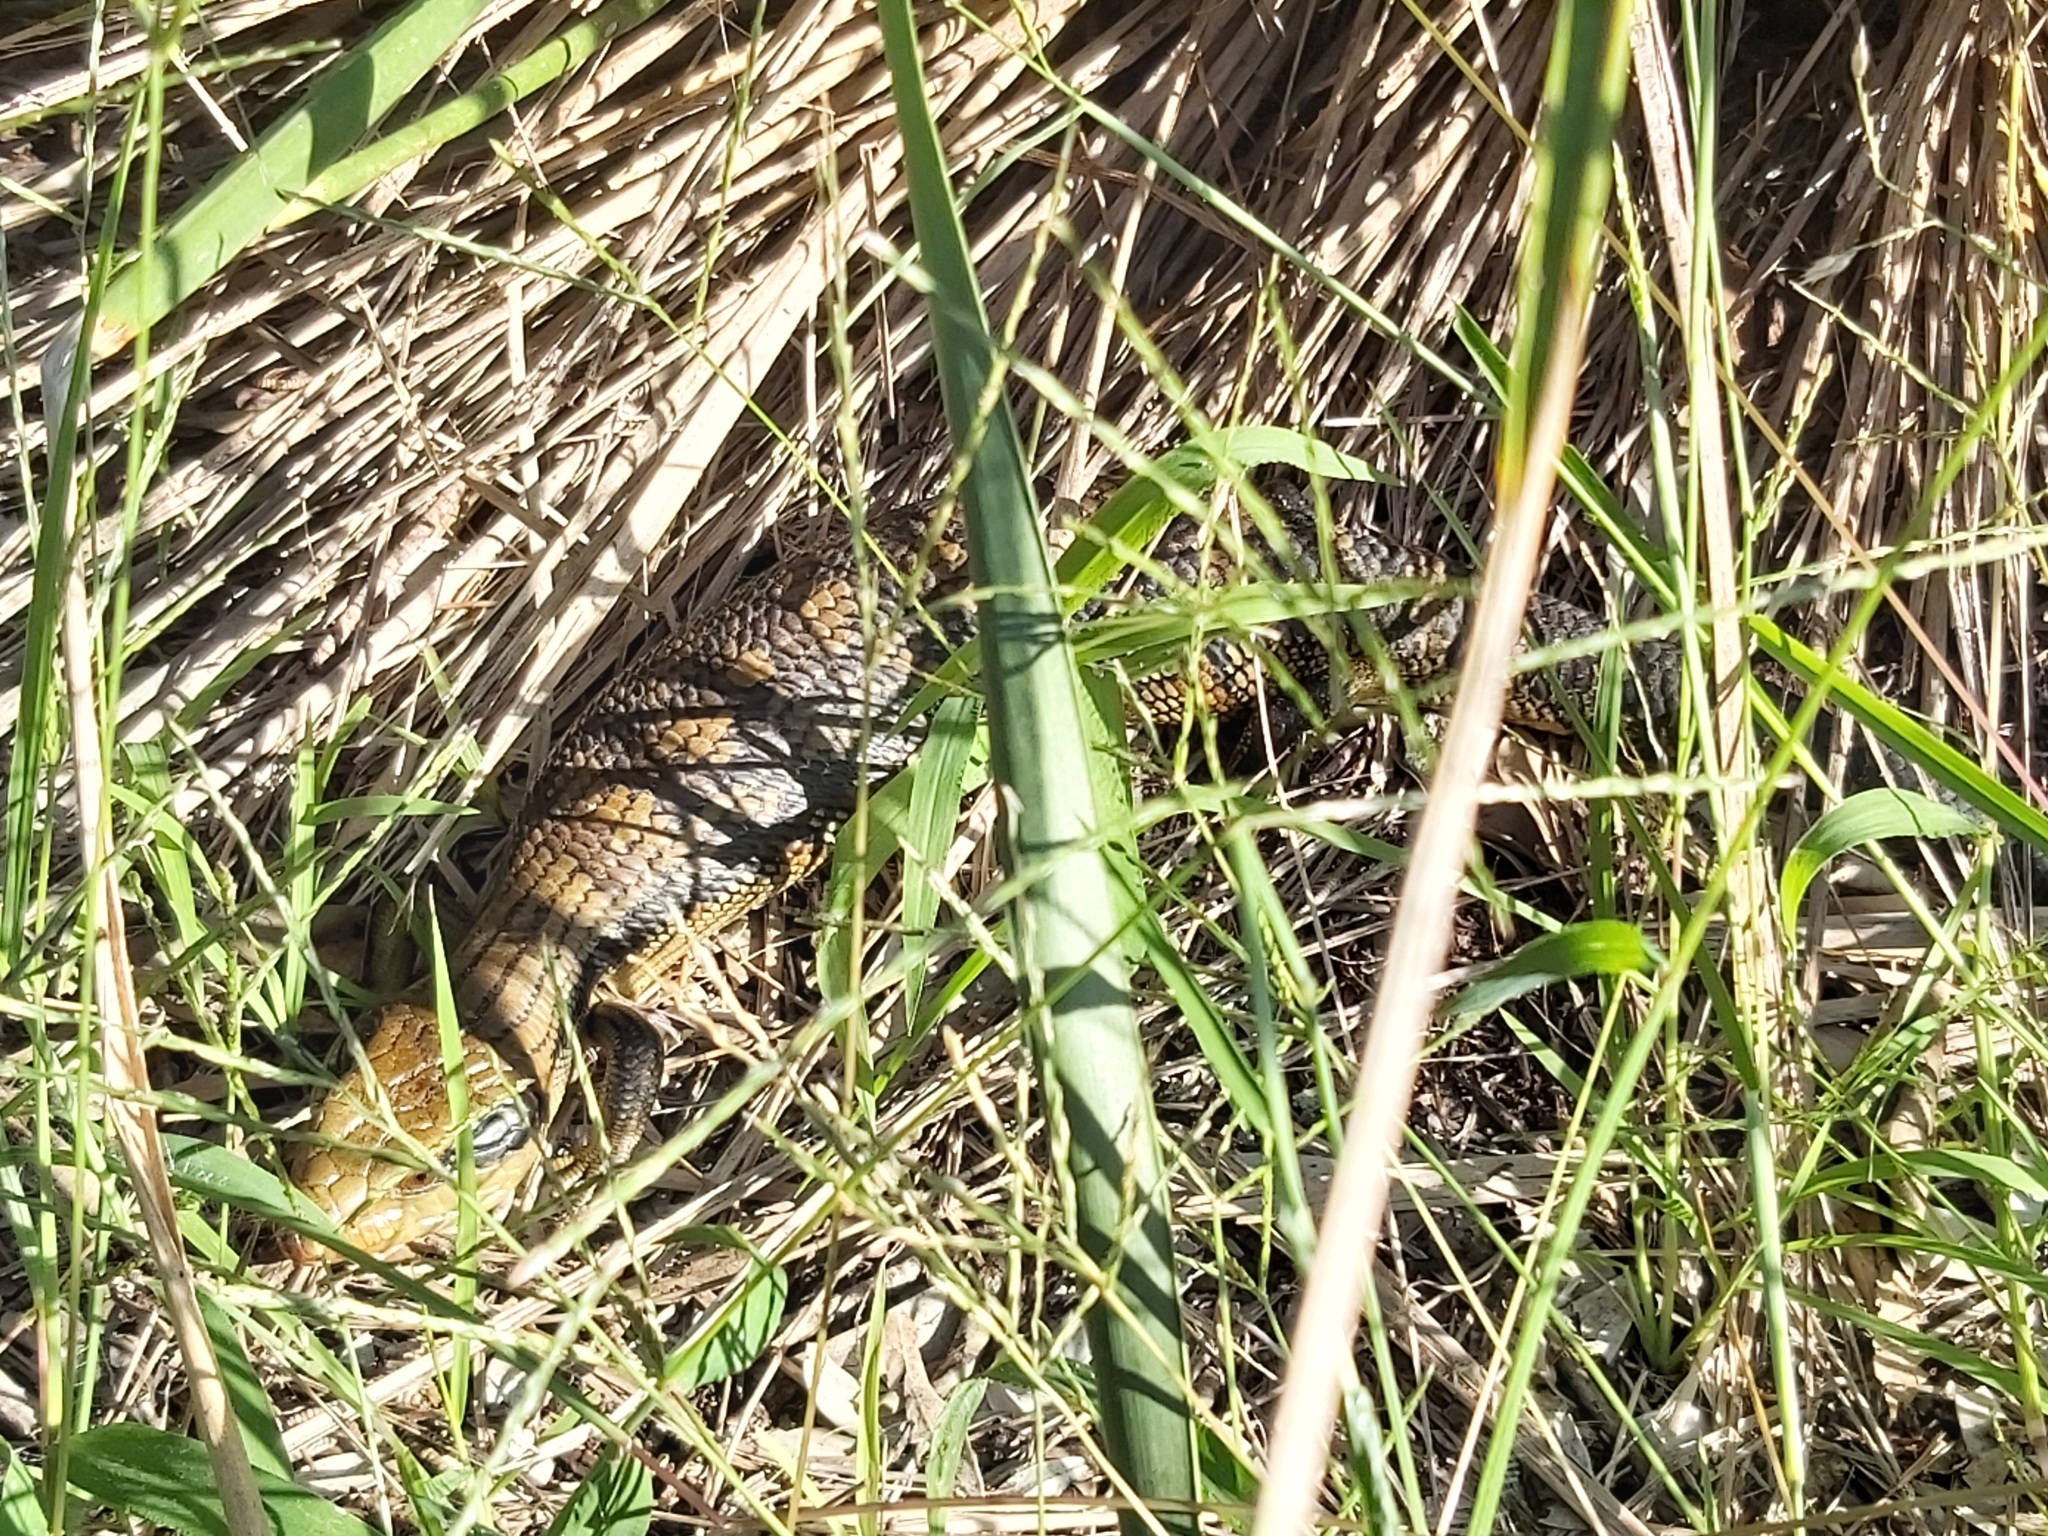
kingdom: Animalia
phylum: Chordata
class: Squamata
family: Scincidae
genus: Tiliqua
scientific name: Tiliqua scincoides
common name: Common bluetongue
